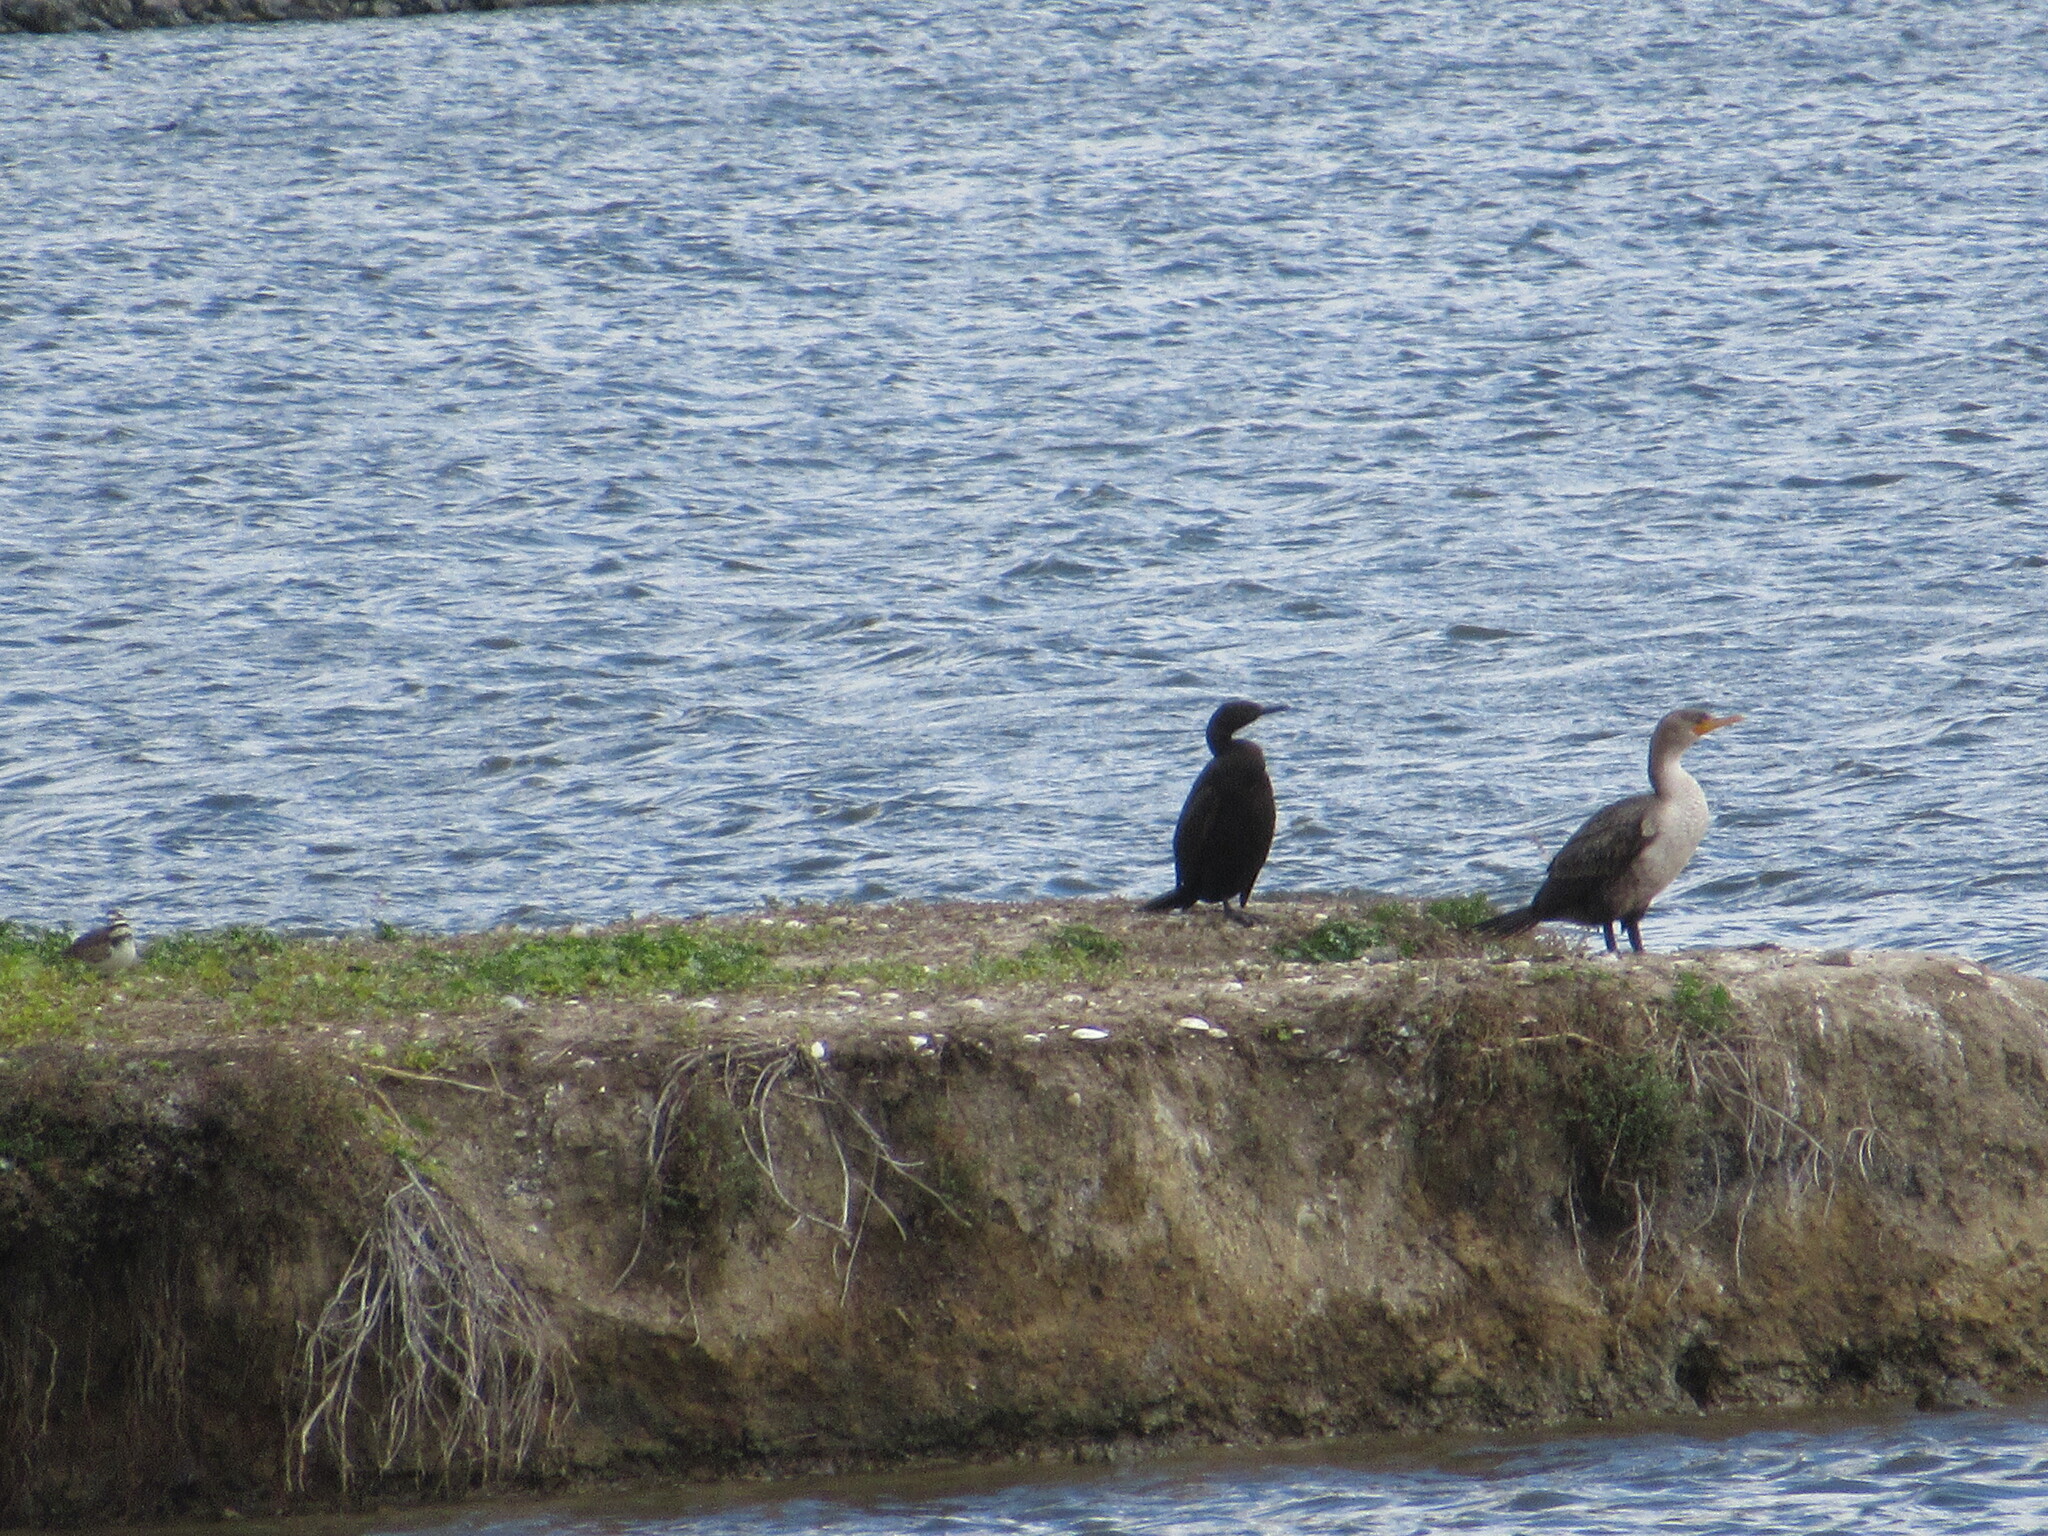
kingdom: Animalia
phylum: Chordata
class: Aves
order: Suliformes
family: Phalacrocoracidae
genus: Phalacrocorax
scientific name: Phalacrocorax pelagicus
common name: Pelagic cormorant
